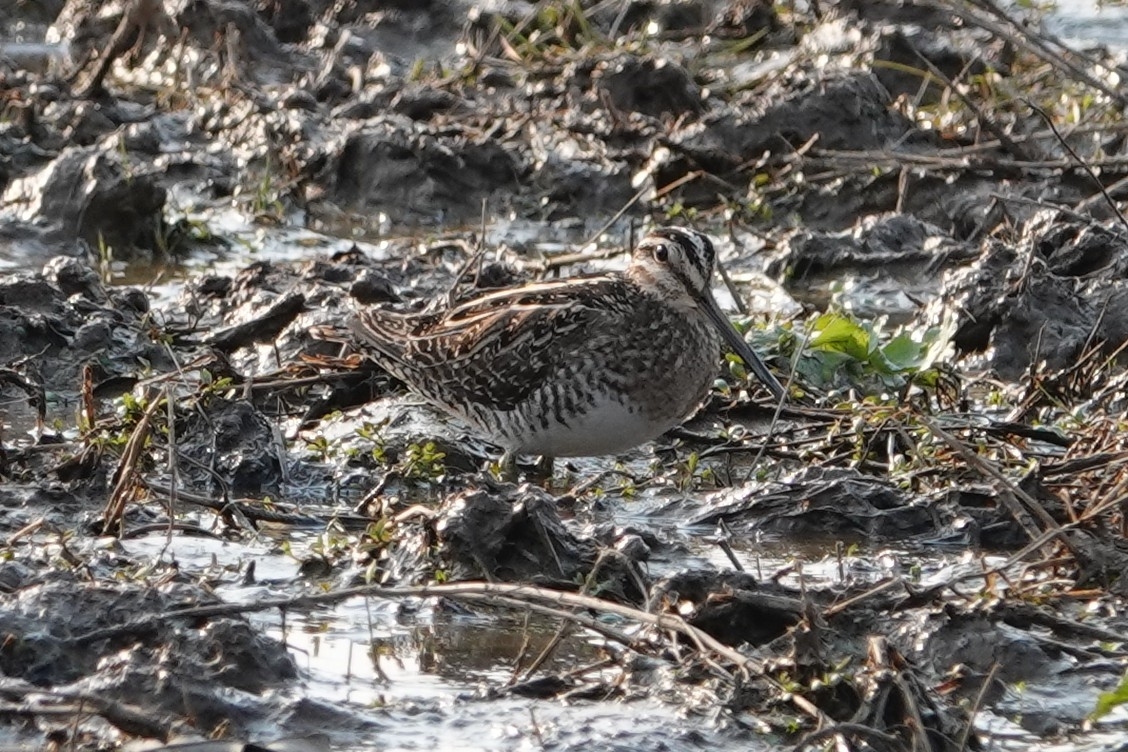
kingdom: Animalia
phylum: Chordata
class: Aves
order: Charadriiformes
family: Scolopacidae
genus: Gallinago
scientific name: Gallinago delicata
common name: Wilson's snipe
